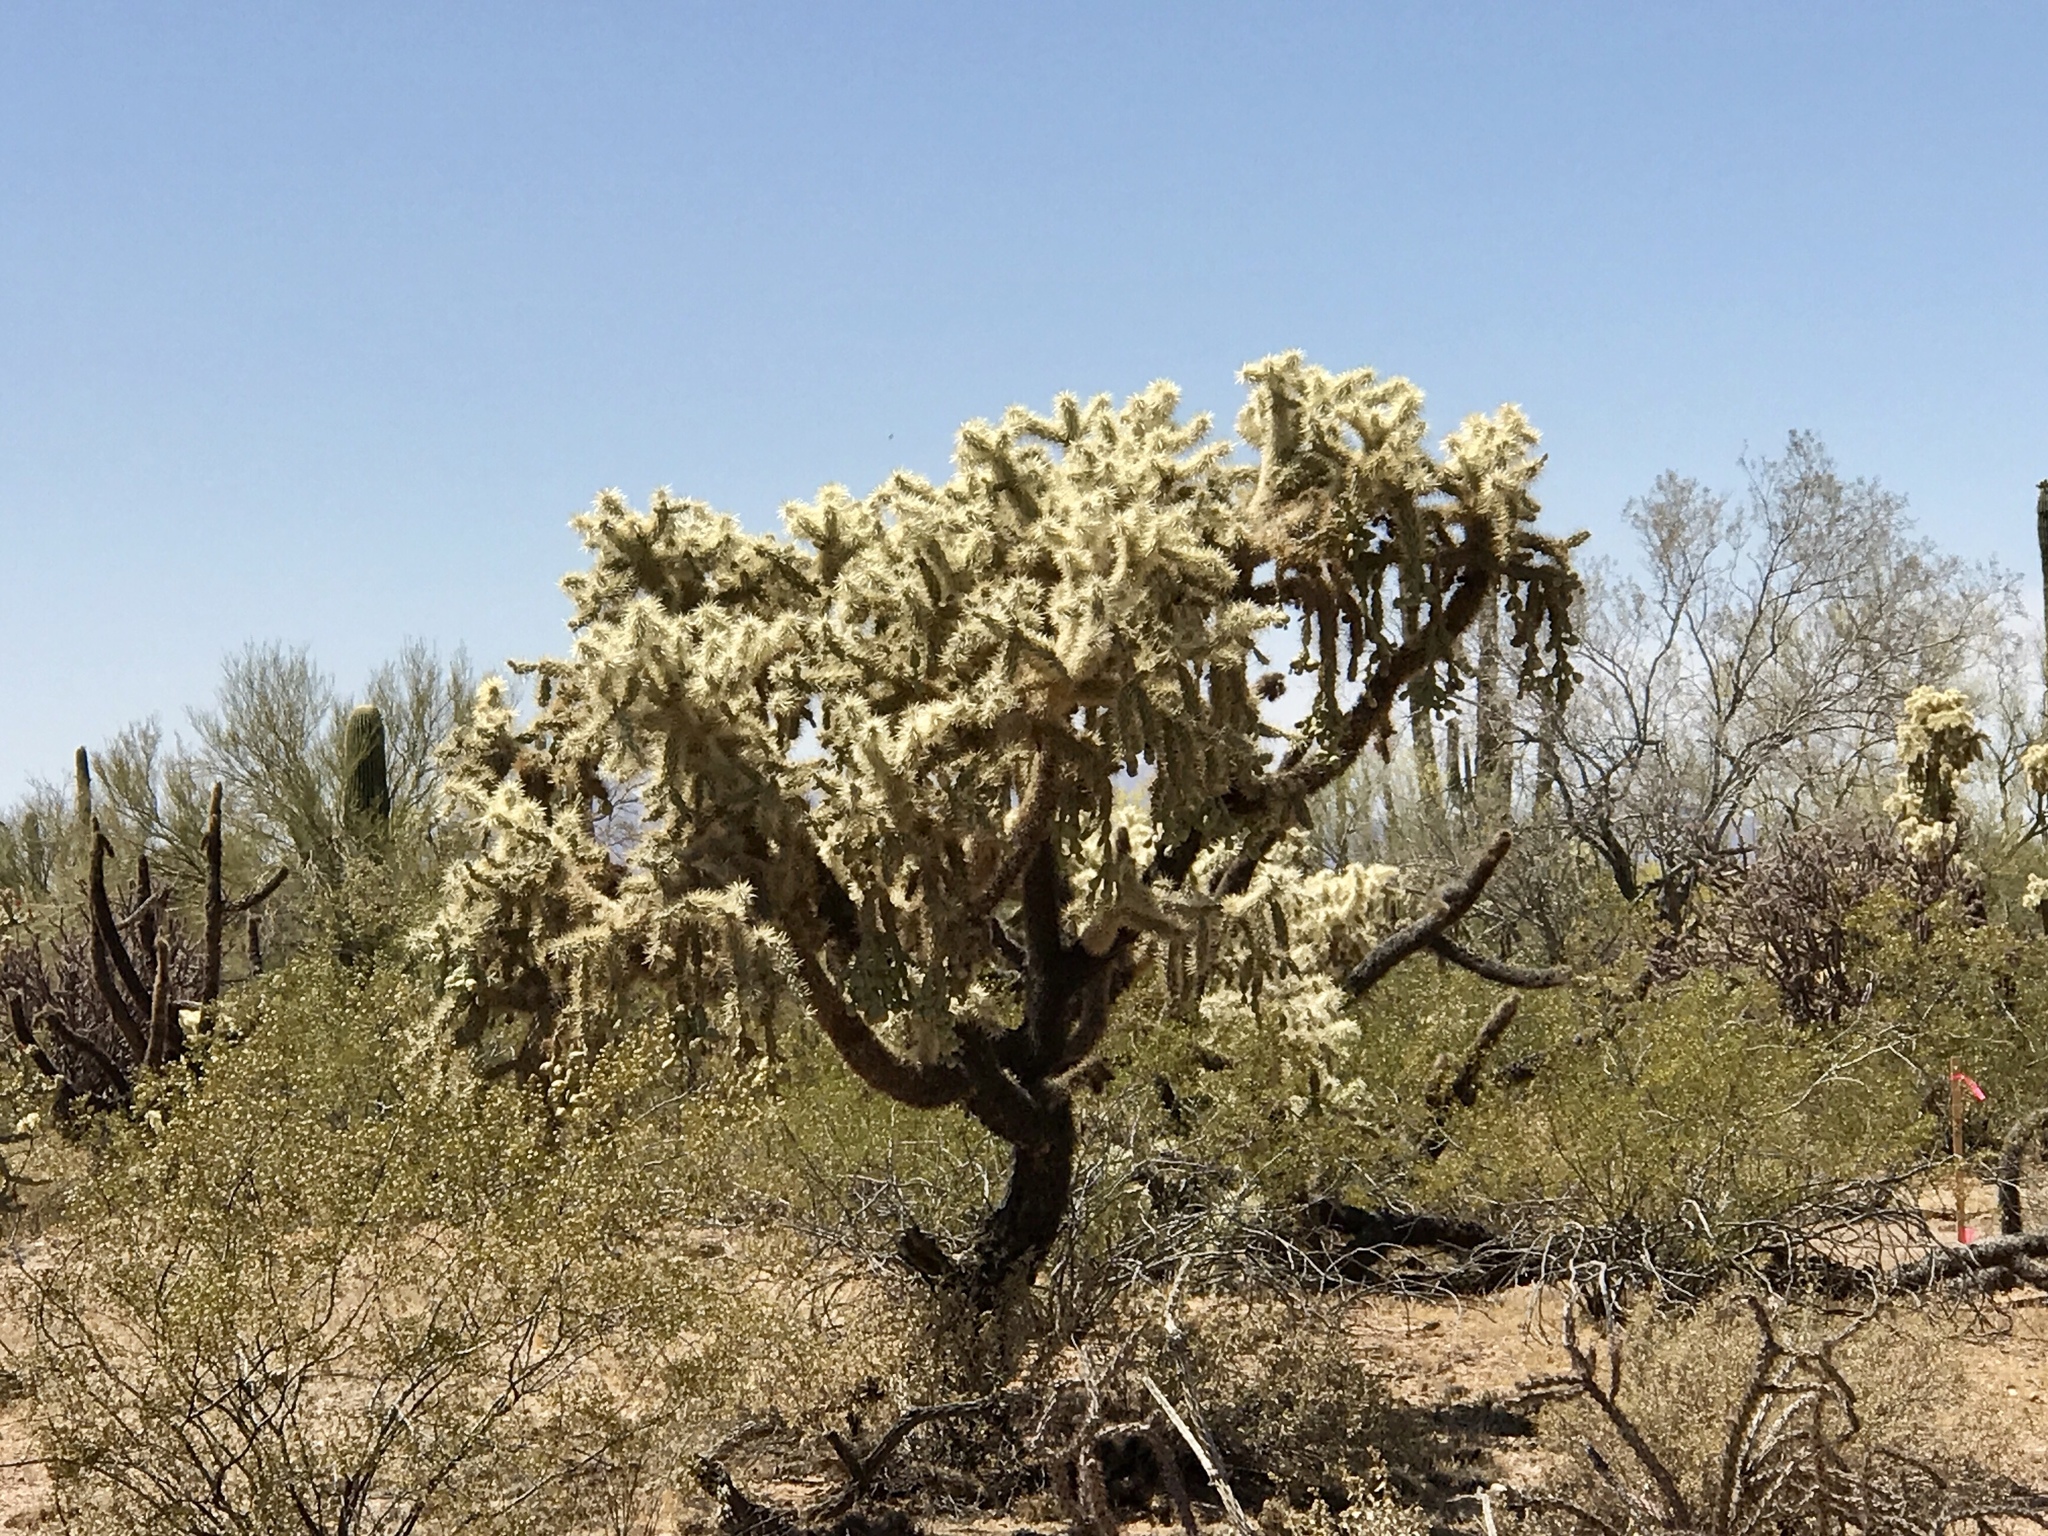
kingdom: Plantae
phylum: Tracheophyta
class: Magnoliopsida
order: Caryophyllales
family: Cactaceae
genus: Cylindropuntia
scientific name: Cylindropuntia fulgida
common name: Jumping cholla
